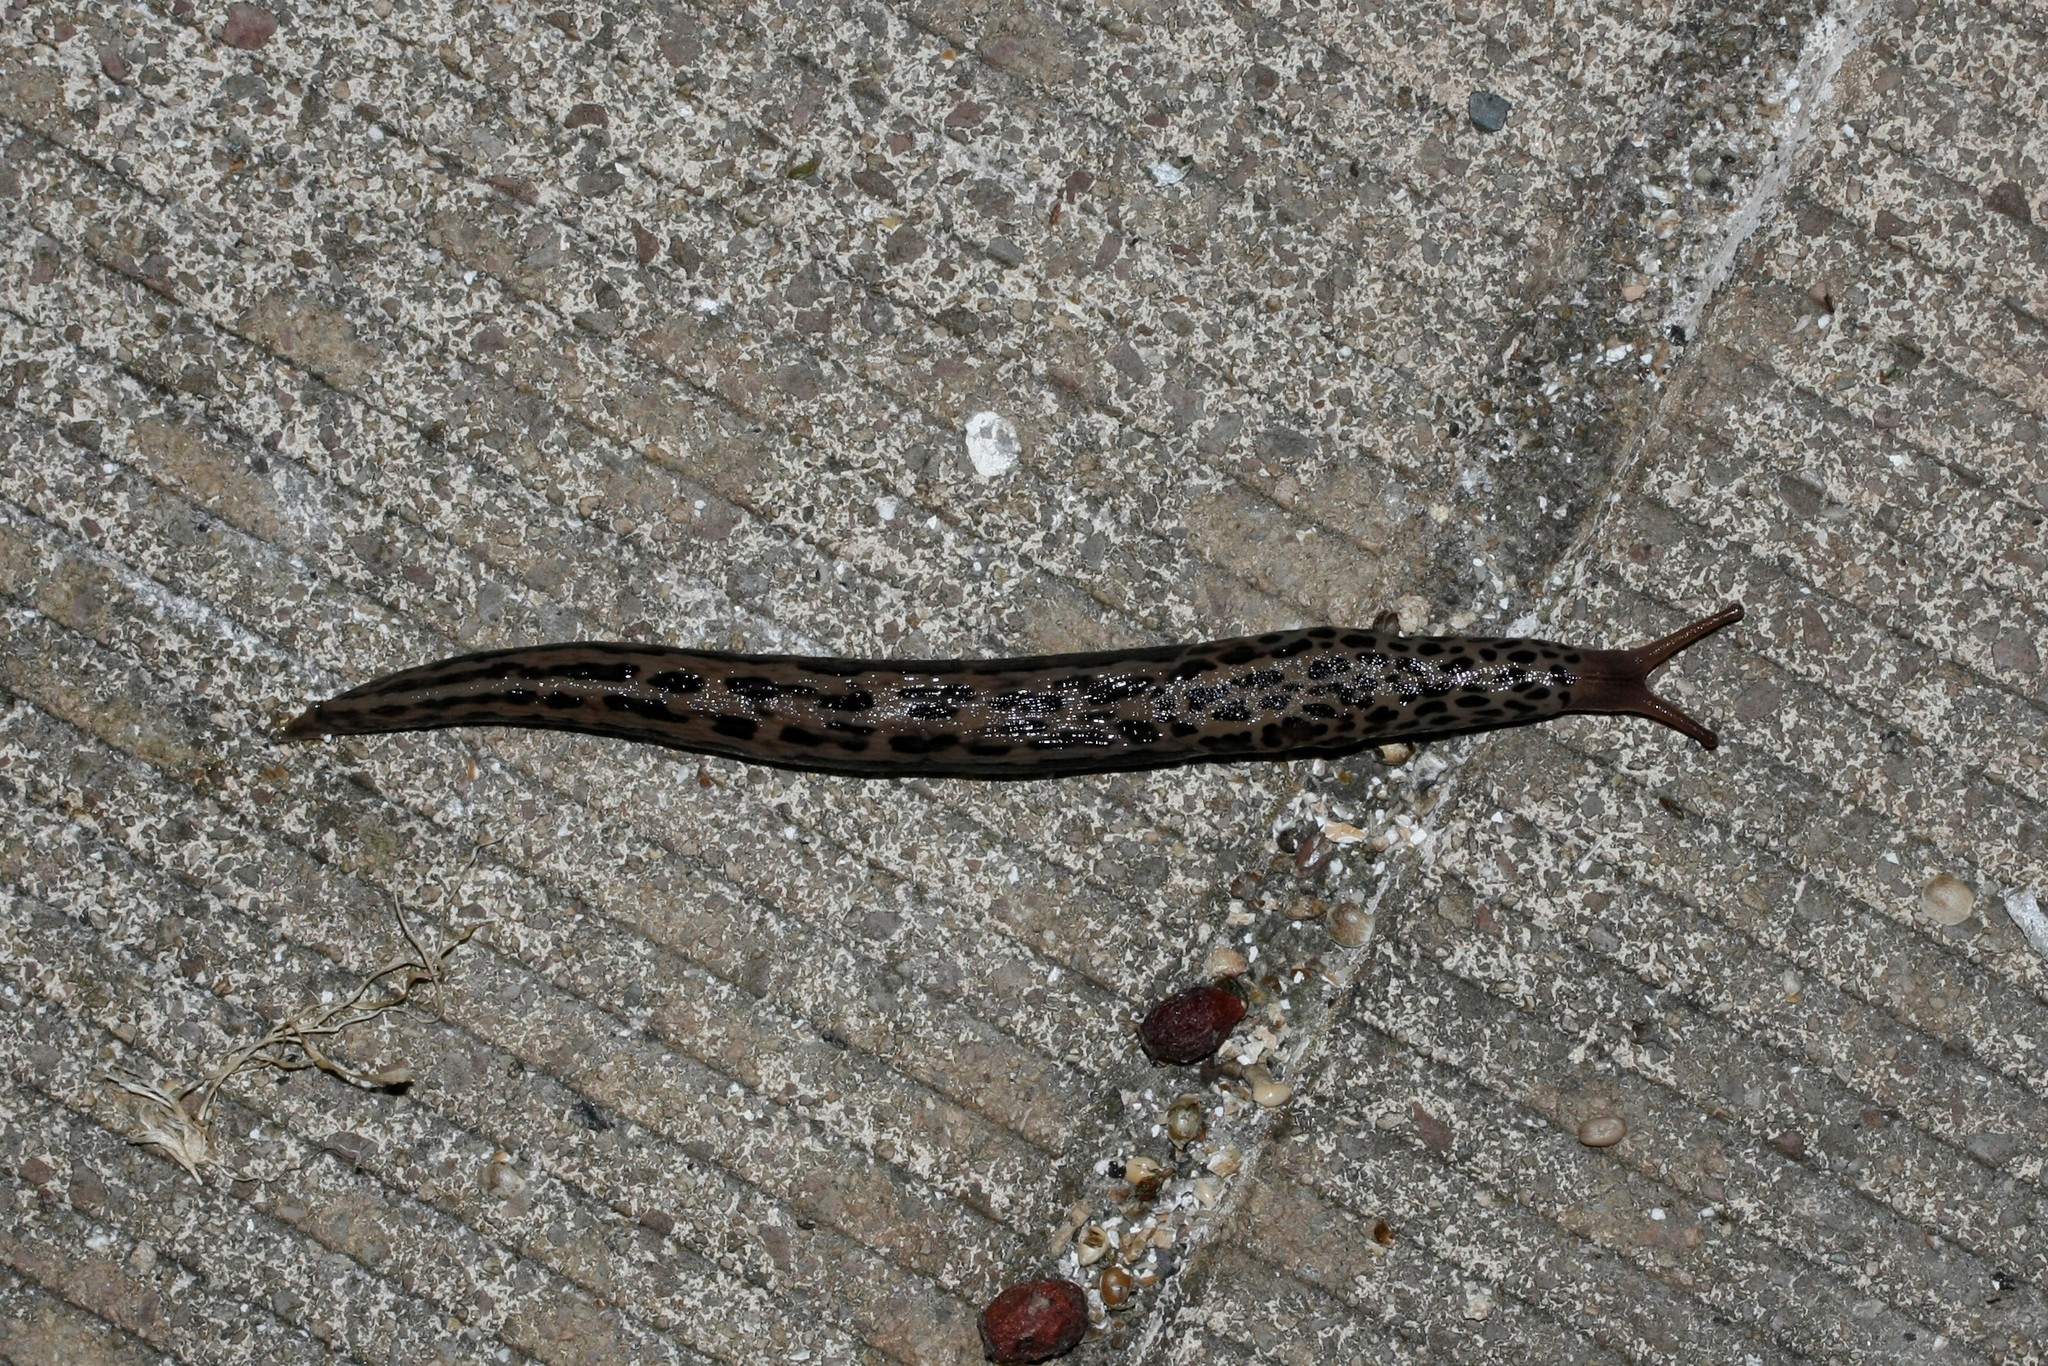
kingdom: Animalia
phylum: Mollusca
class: Gastropoda
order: Stylommatophora
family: Limacidae
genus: Limax
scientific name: Limax maximus
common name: Great grey slug
